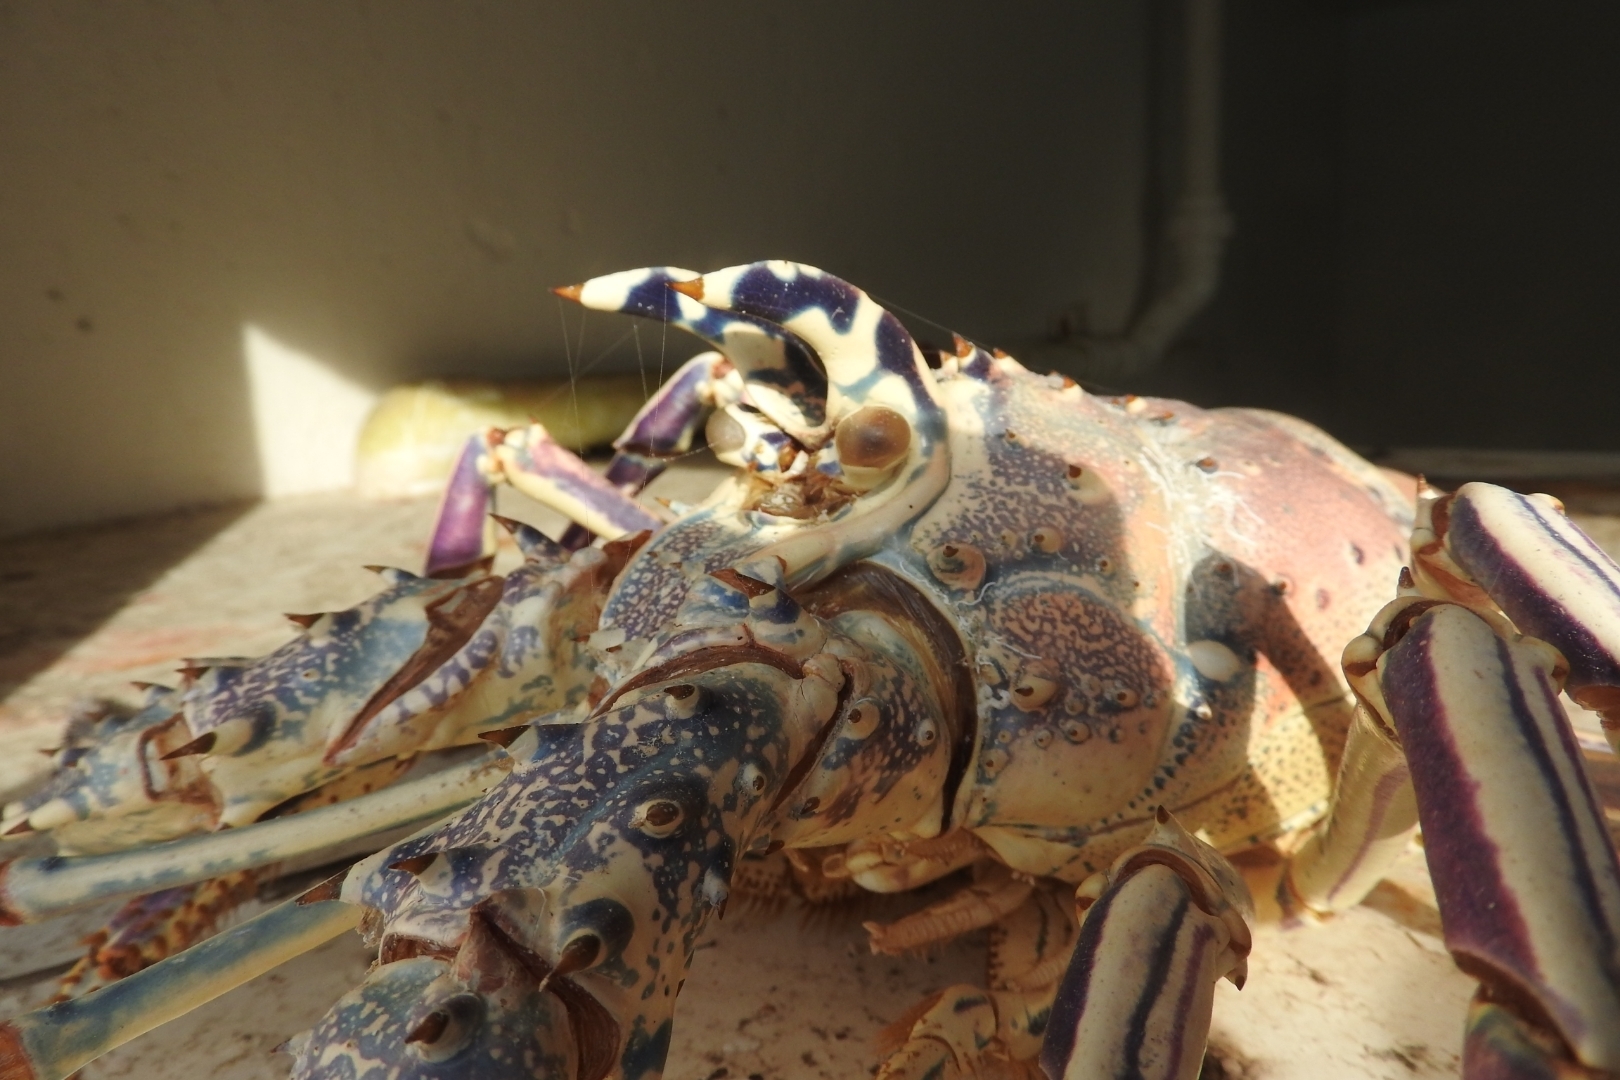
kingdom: Animalia
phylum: Arthropoda
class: Malacostraca
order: Decapoda
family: Palinuridae
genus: Panulirus
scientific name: Panulirus argus
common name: Caribbean spiny lobster
